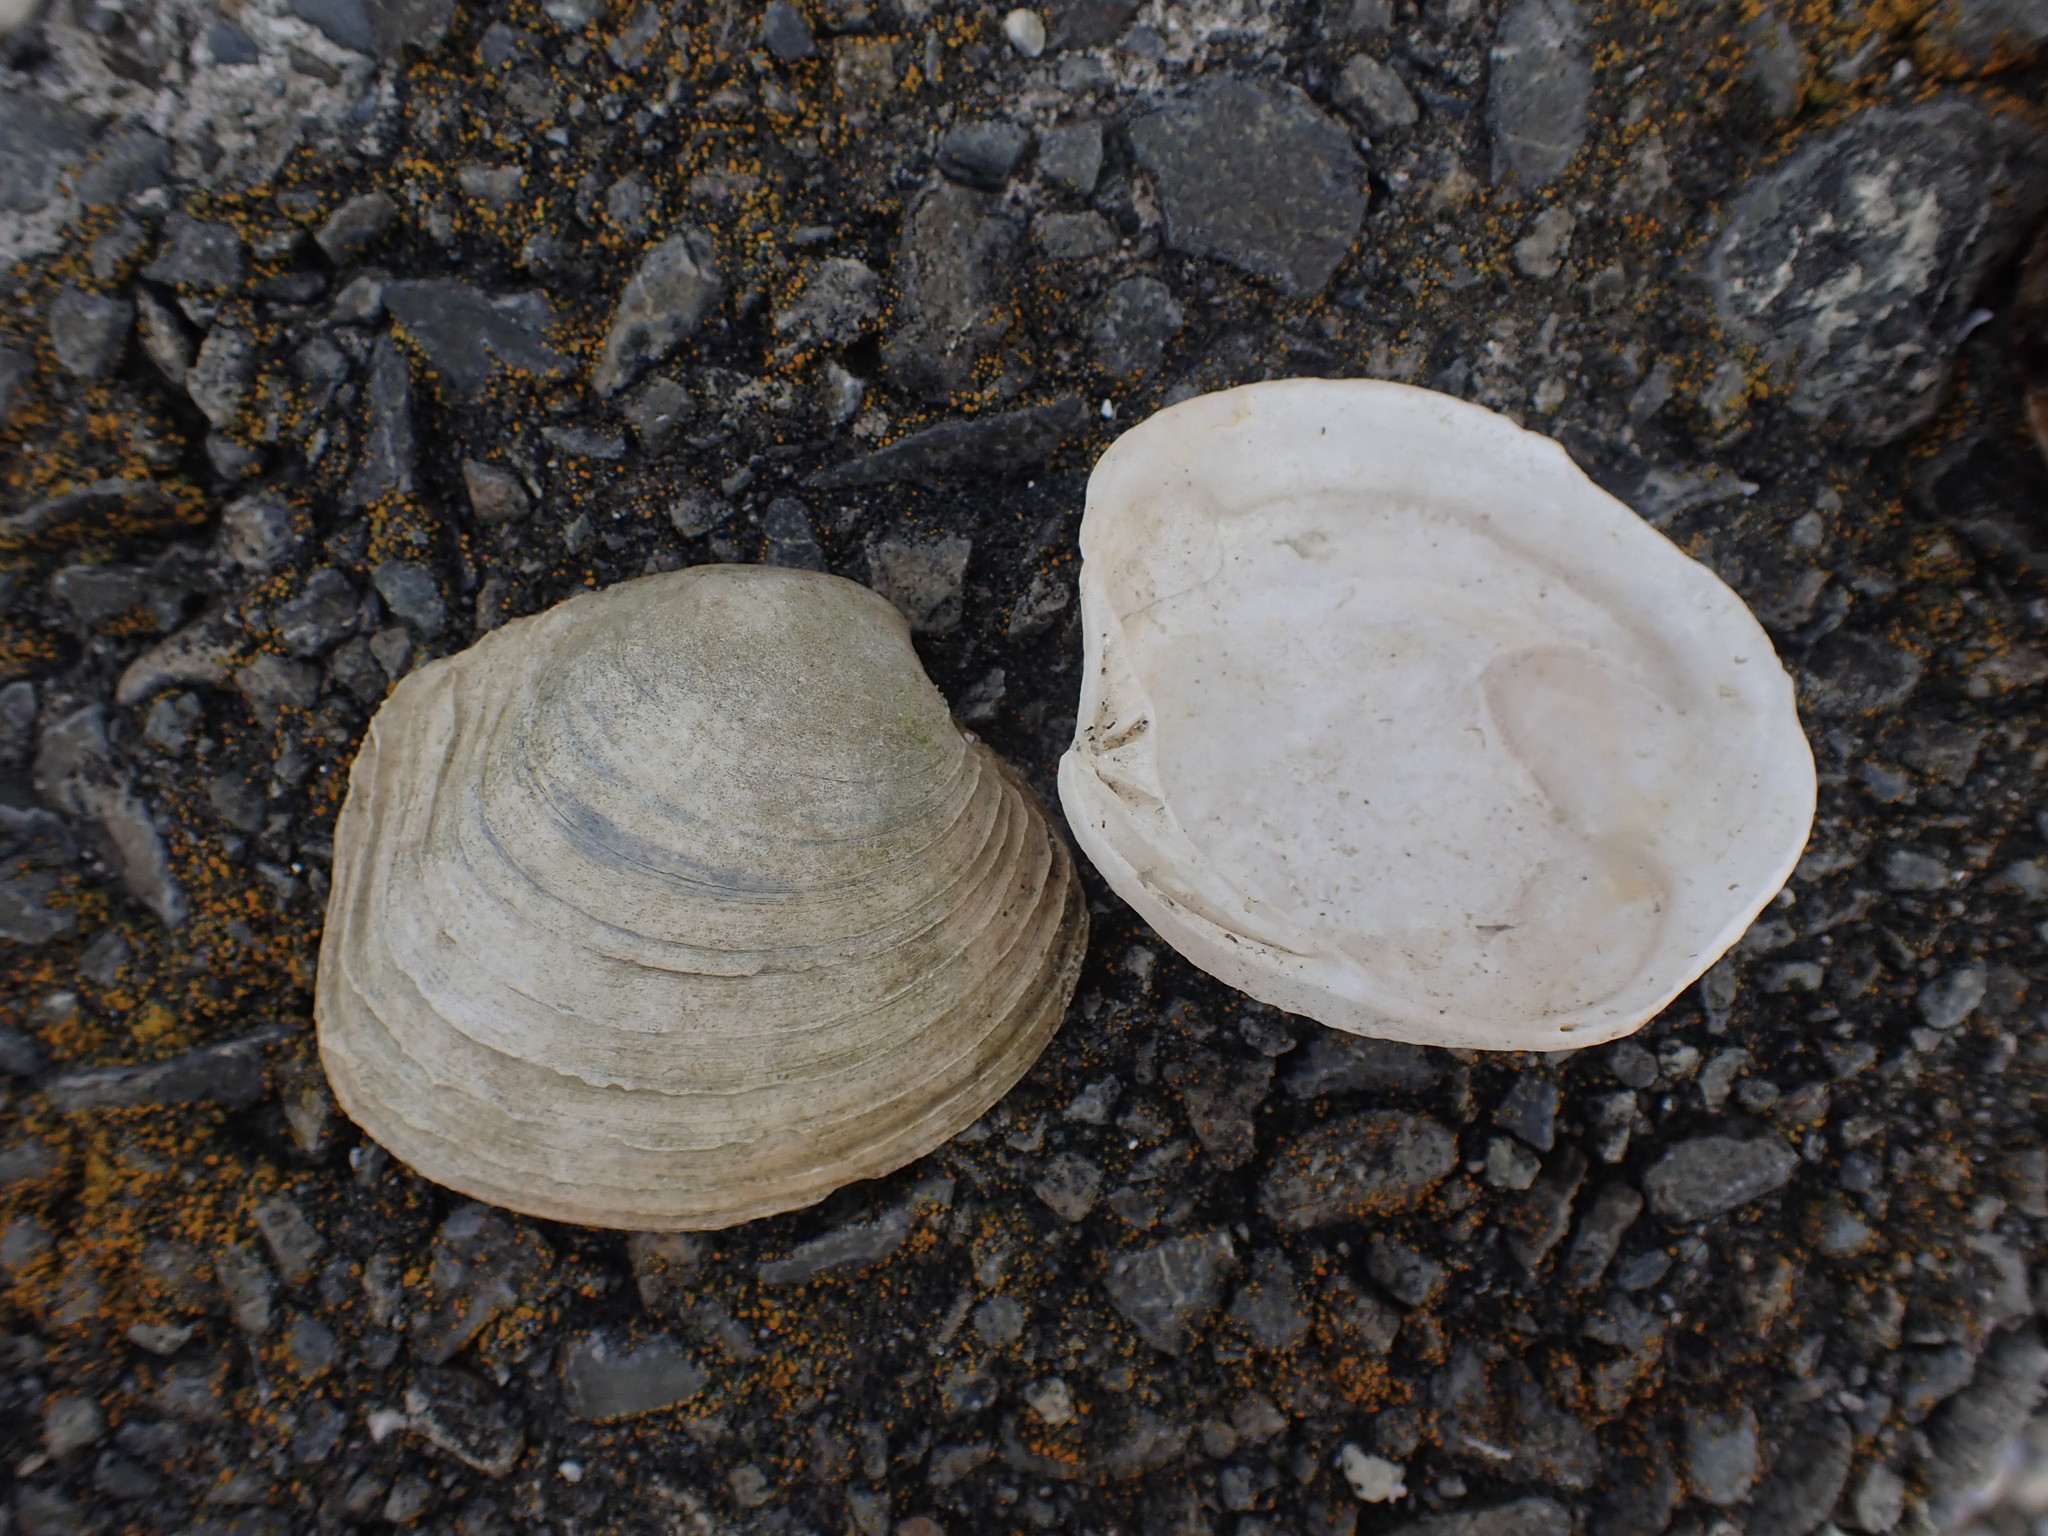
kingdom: Animalia
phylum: Mollusca
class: Bivalvia
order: Venerida
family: Veneridae
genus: Bassina
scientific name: Bassina yatei
